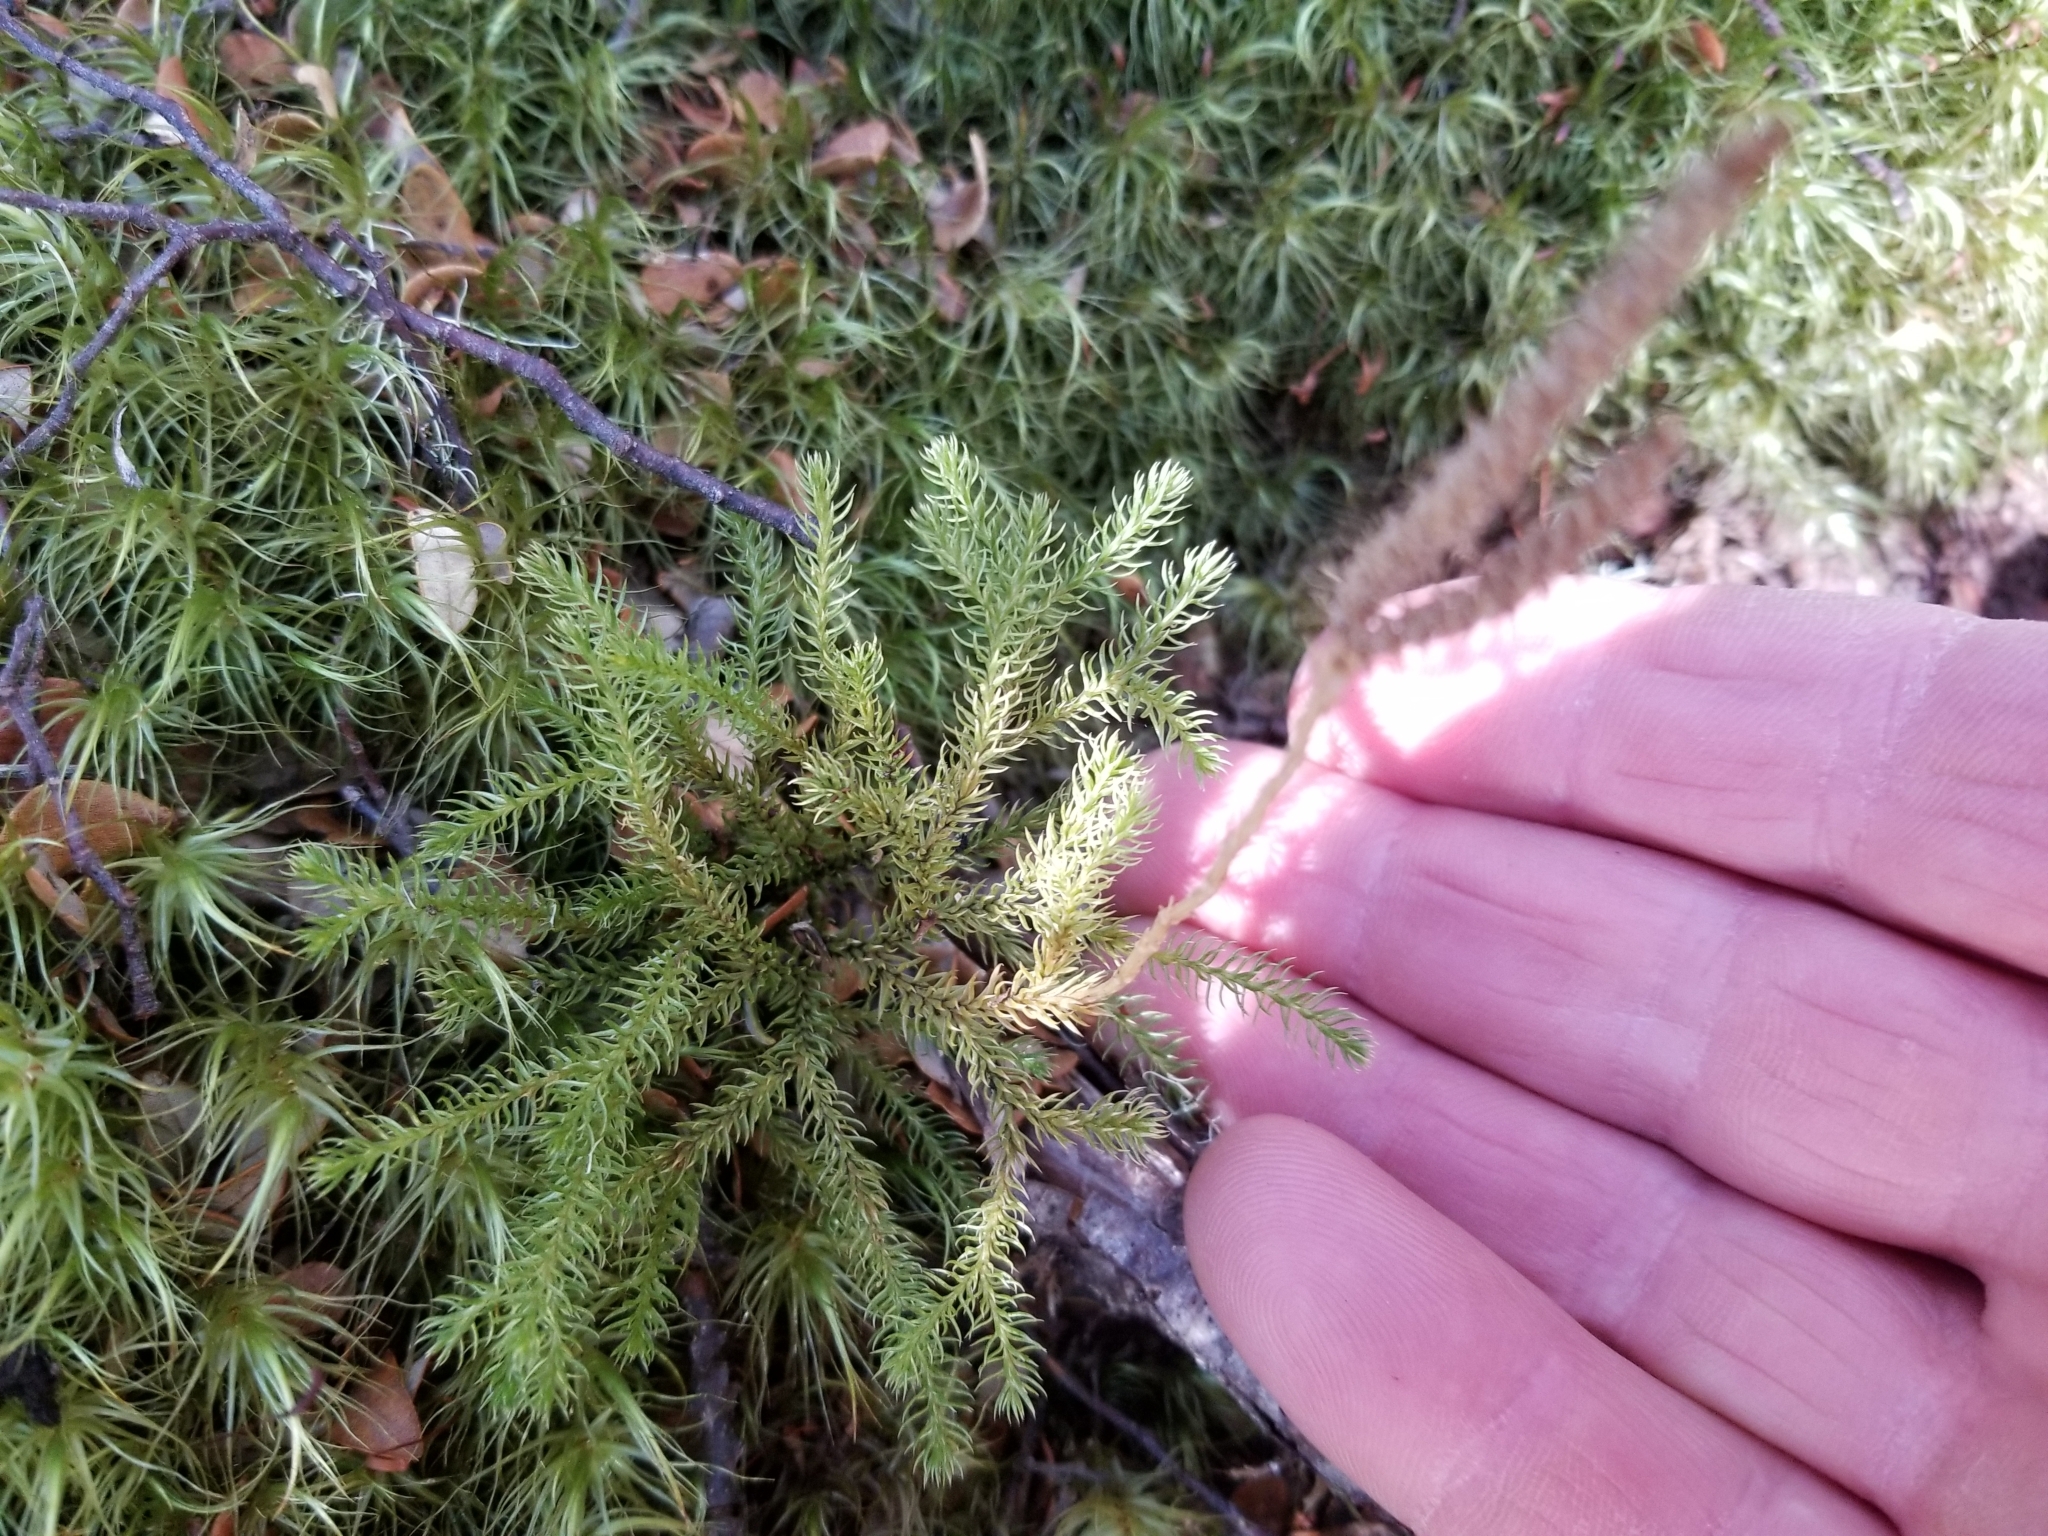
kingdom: Plantae
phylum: Tracheophyta
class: Lycopodiopsida
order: Lycopodiales
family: Lycopodiaceae
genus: Austrolycopodium
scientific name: Austrolycopodium fastigiatum
